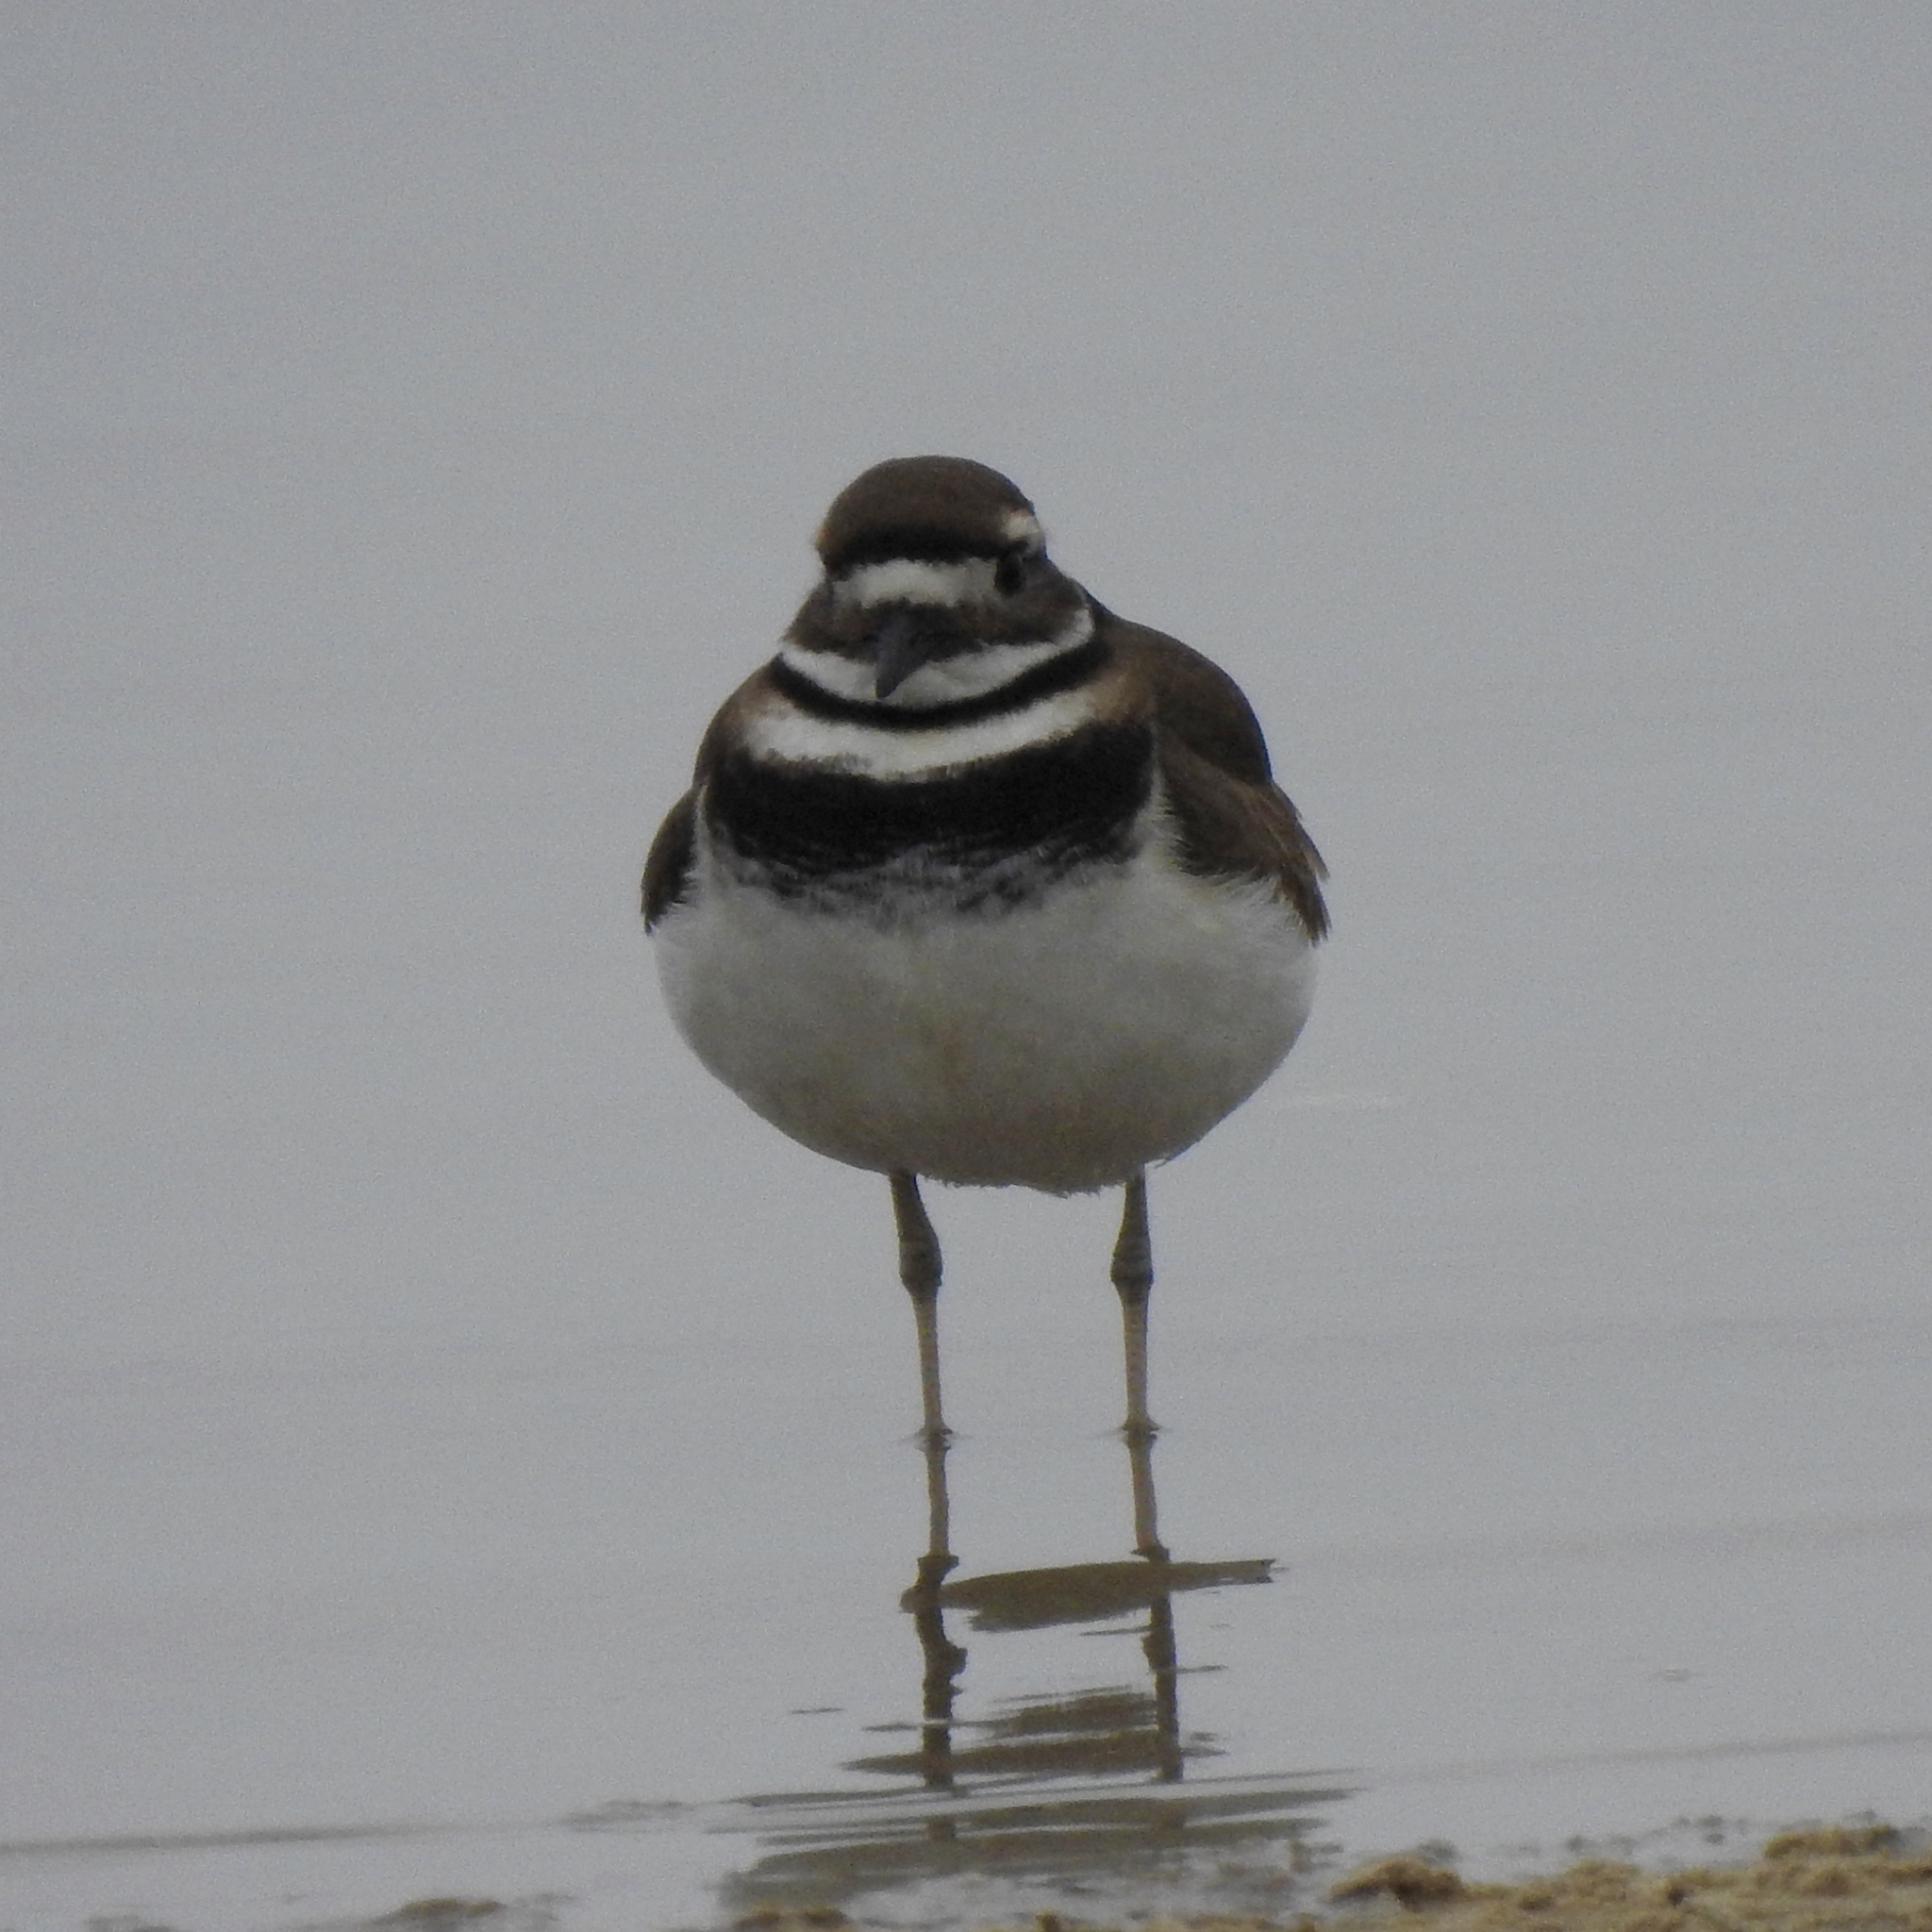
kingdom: Animalia
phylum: Chordata
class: Aves
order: Charadriiformes
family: Charadriidae
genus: Charadrius
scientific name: Charadrius vociferus
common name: Killdeer
